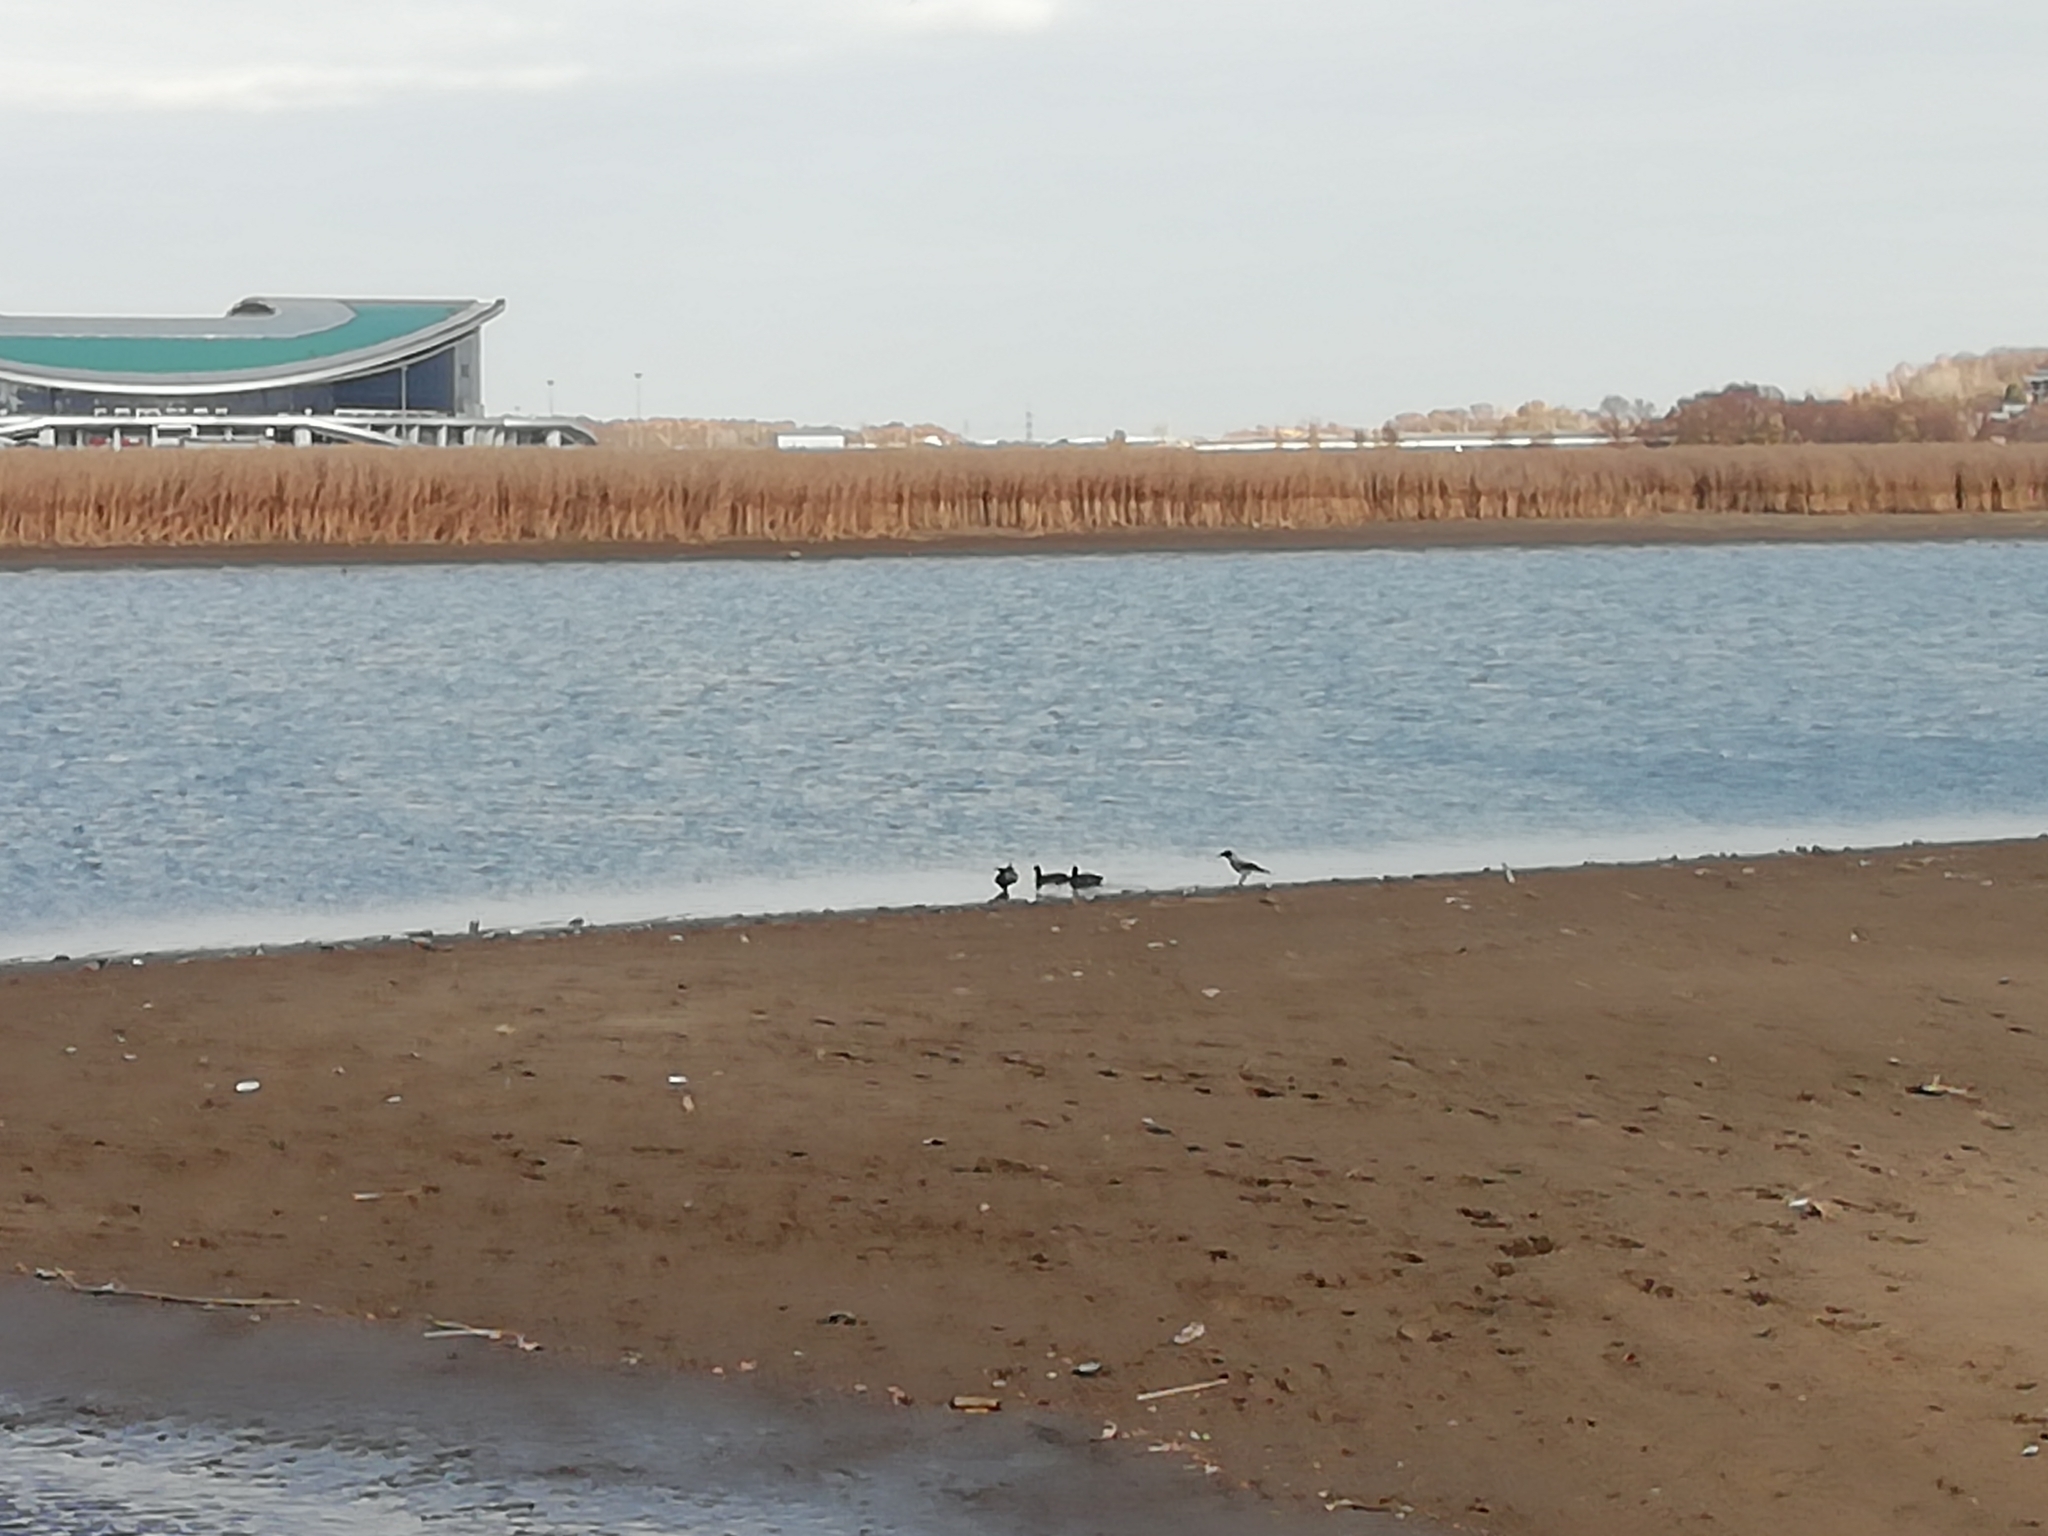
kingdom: Animalia
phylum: Chordata
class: Aves
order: Gruiformes
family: Rallidae
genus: Fulica
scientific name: Fulica atra
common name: Eurasian coot
